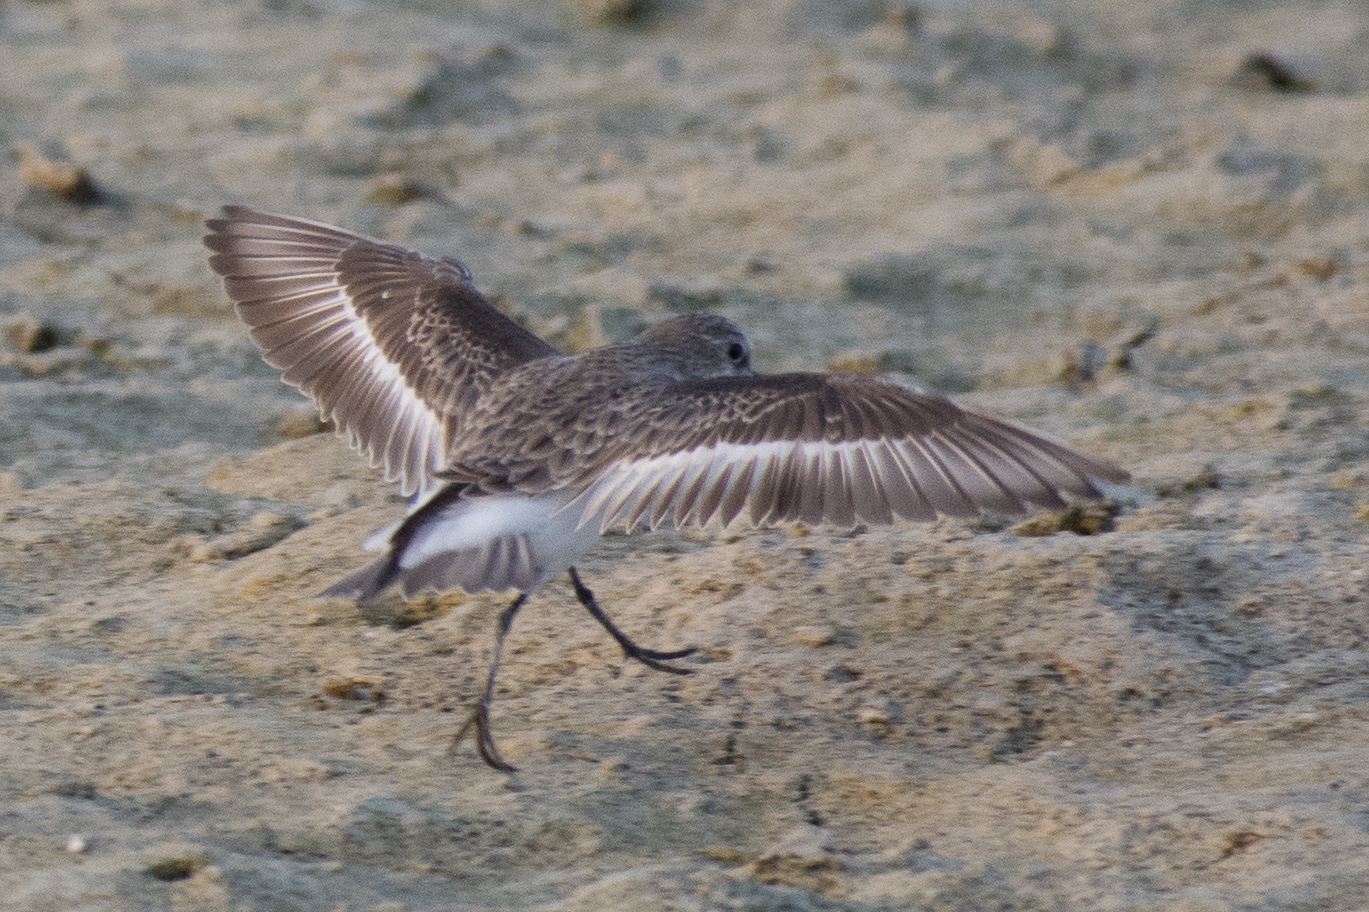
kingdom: Animalia
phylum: Chordata
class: Aves
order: Charadriiformes
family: Scolopacidae
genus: Calidris
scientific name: Calidris minuta
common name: Little stint
